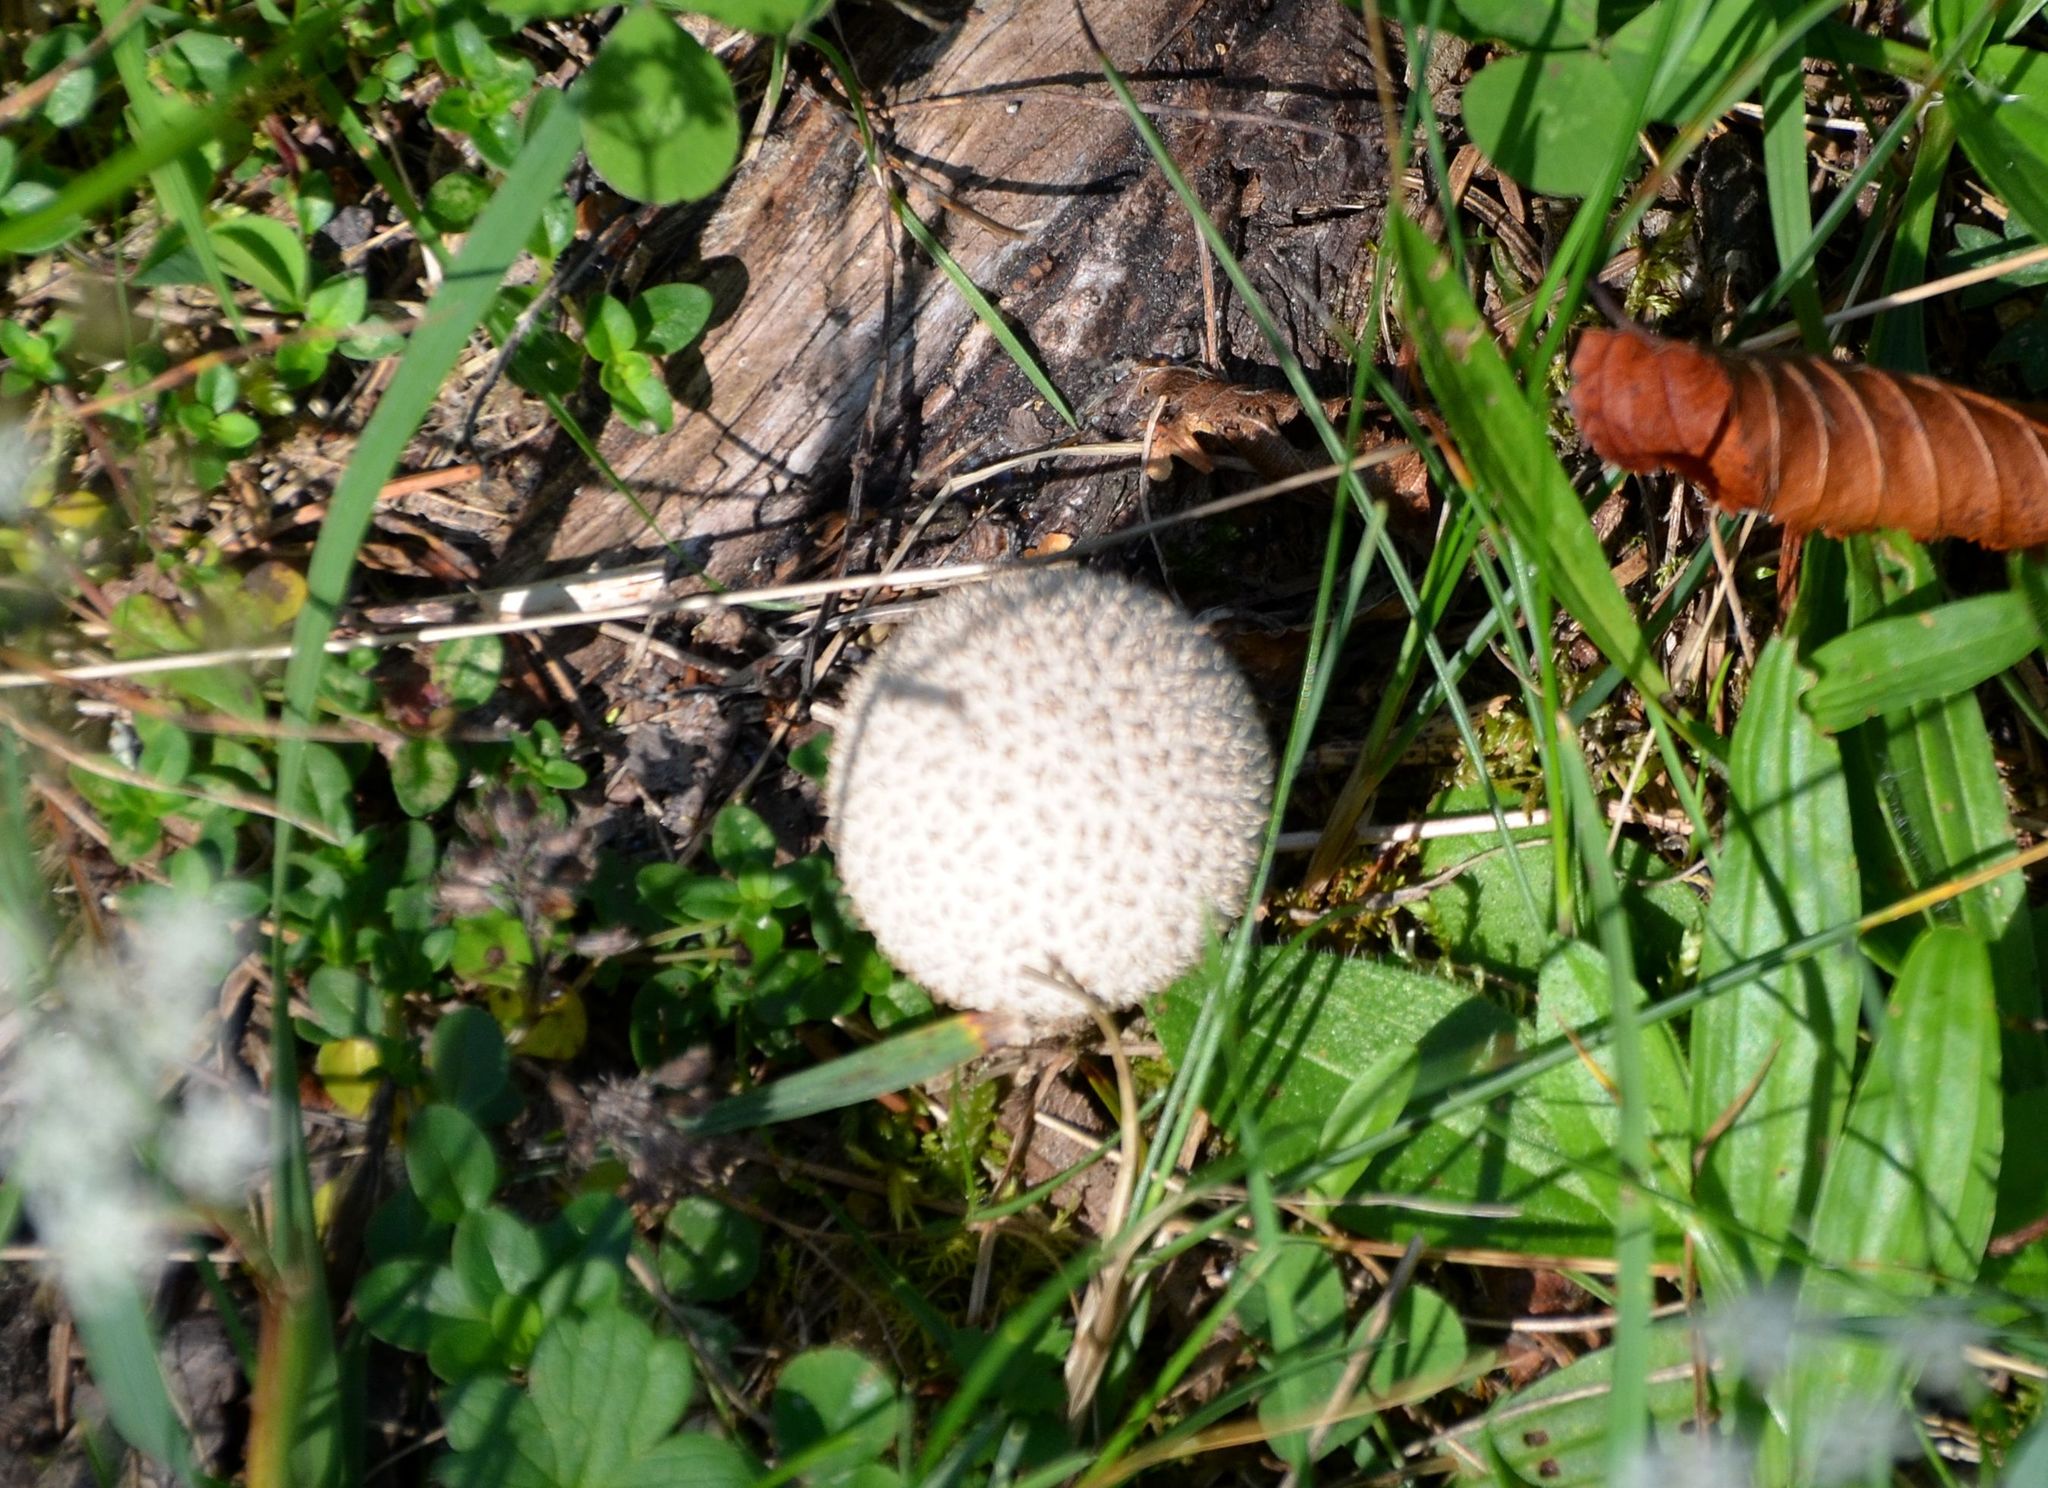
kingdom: Fungi
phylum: Basidiomycota
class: Agaricomycetes
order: Agaricales
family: Agaricaceae
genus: Lycoperdon
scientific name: Lycoperdon marginatum
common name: Peeling puffball
